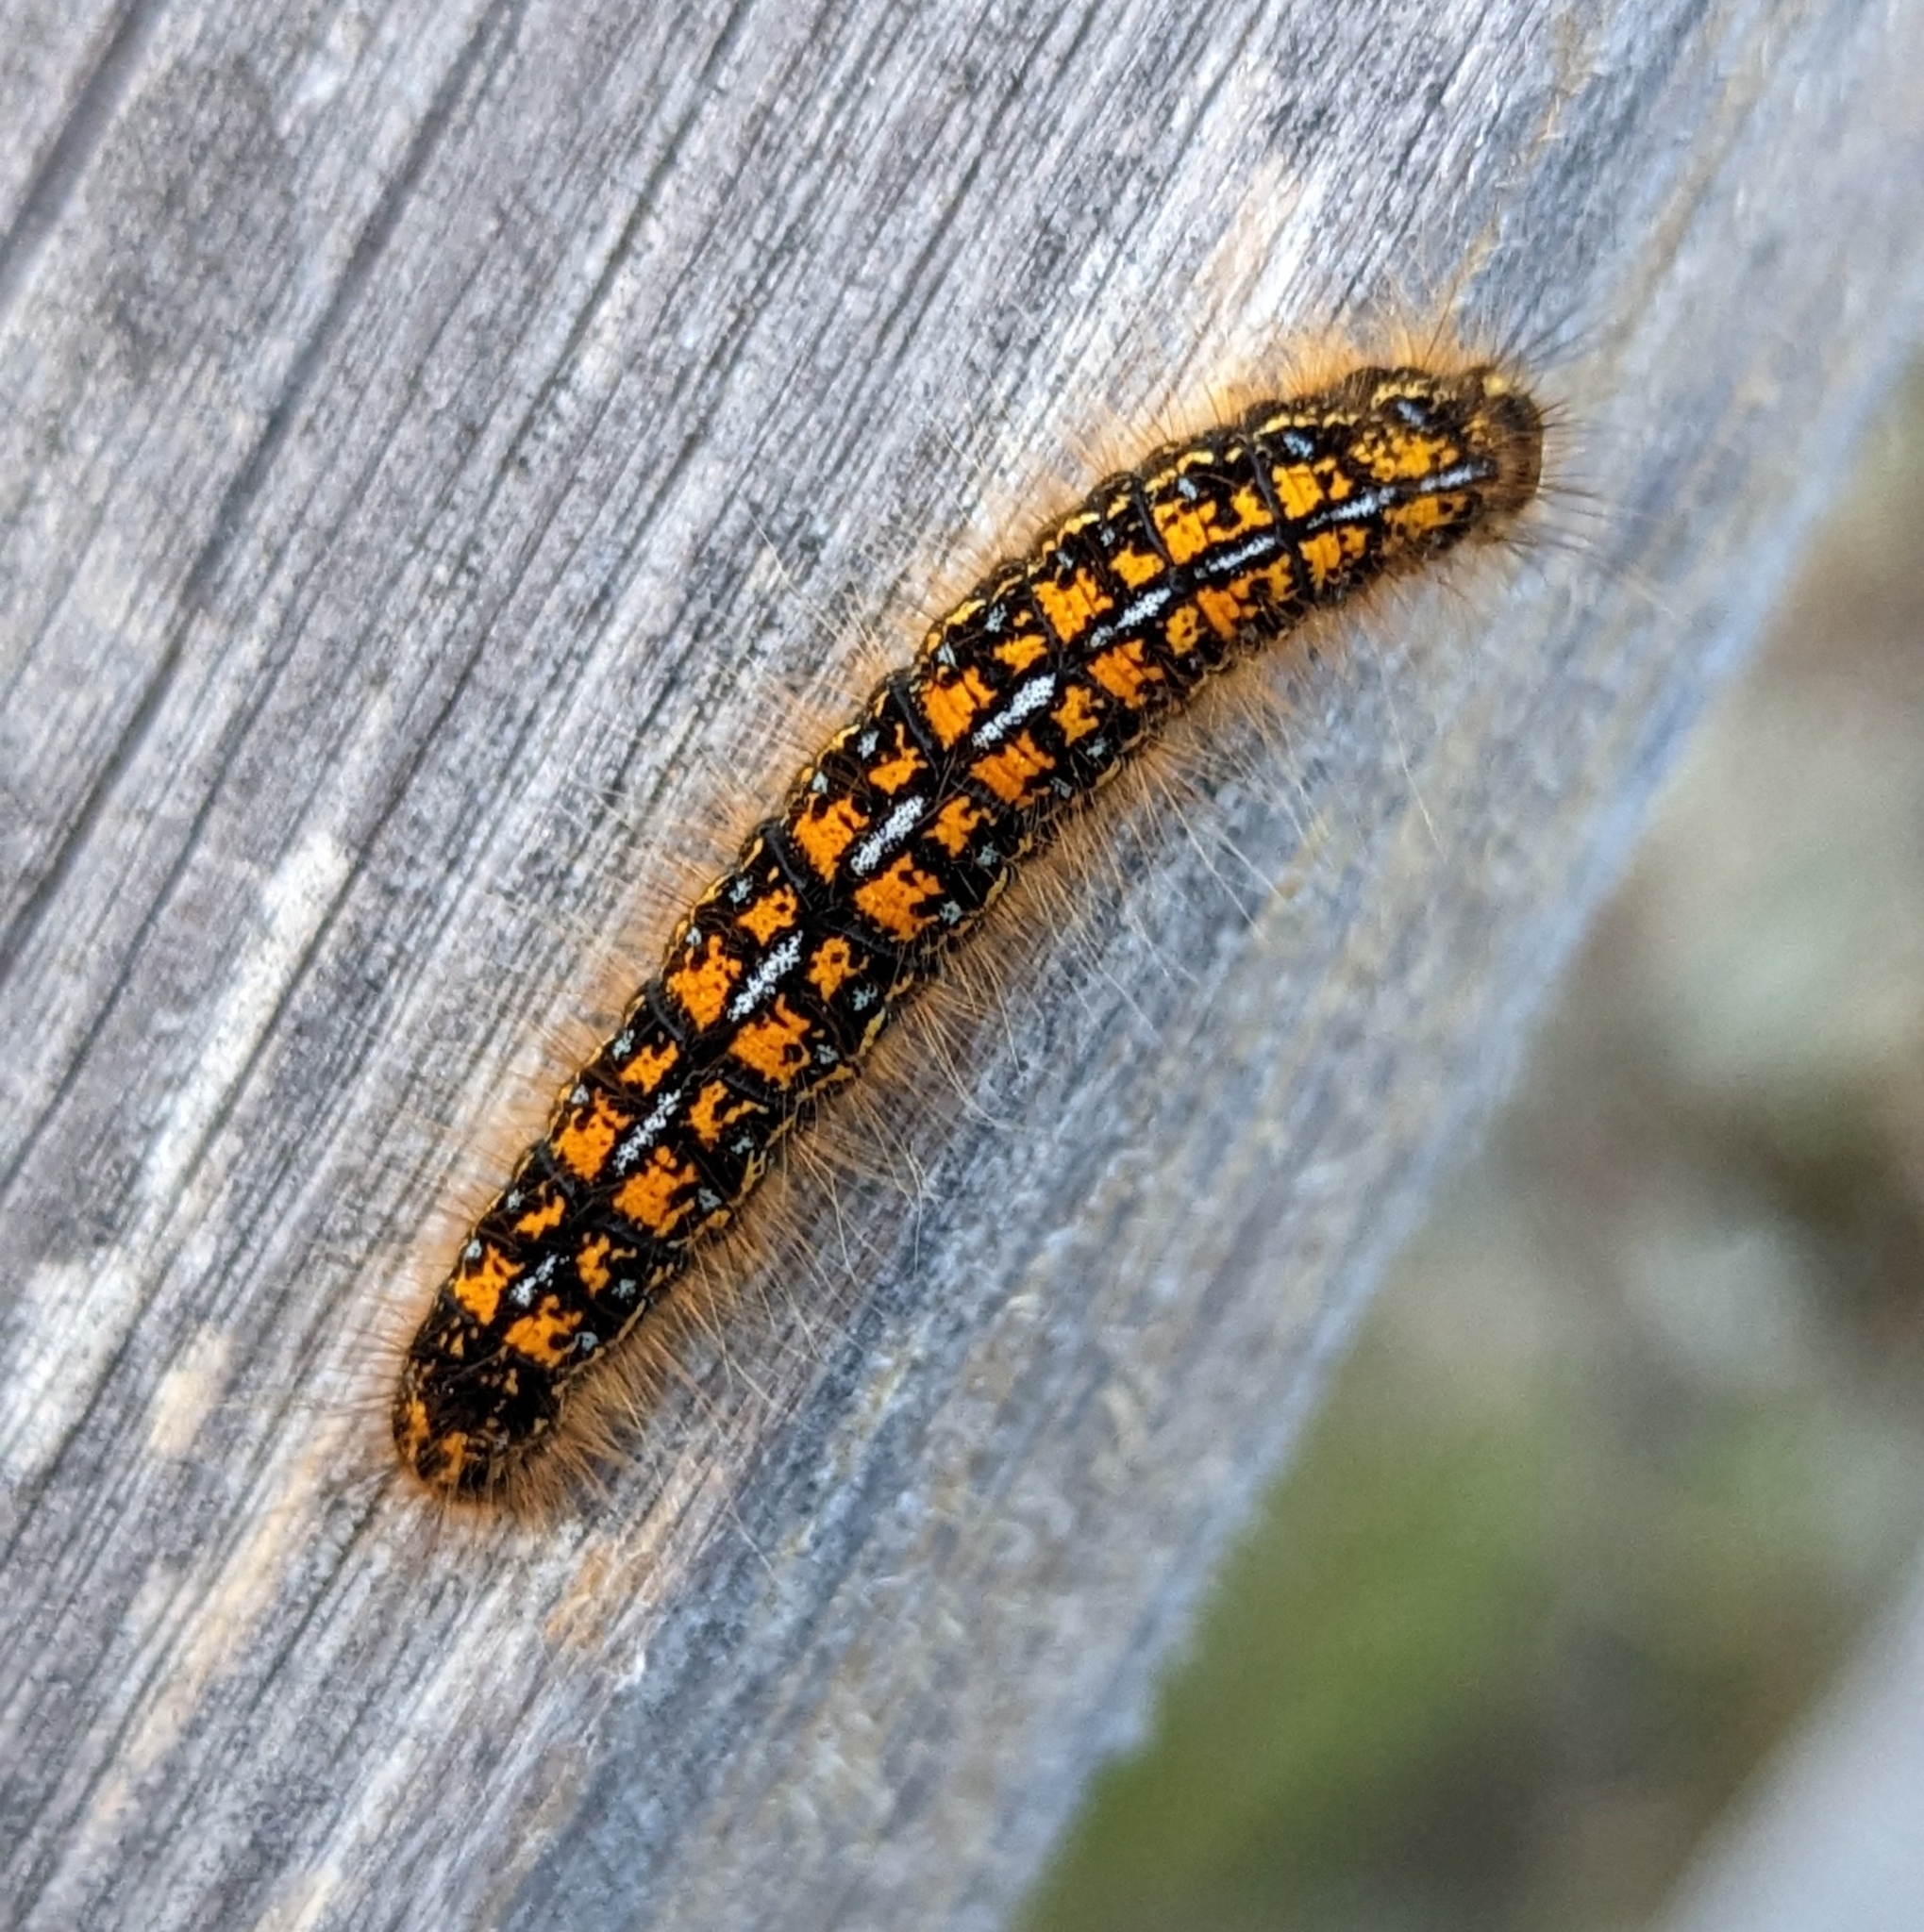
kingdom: Animalia
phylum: Arthropoda
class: Insecta
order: Lepidoptera
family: Lasiocampidae
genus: Malacosoma
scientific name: Malacosoma californica
